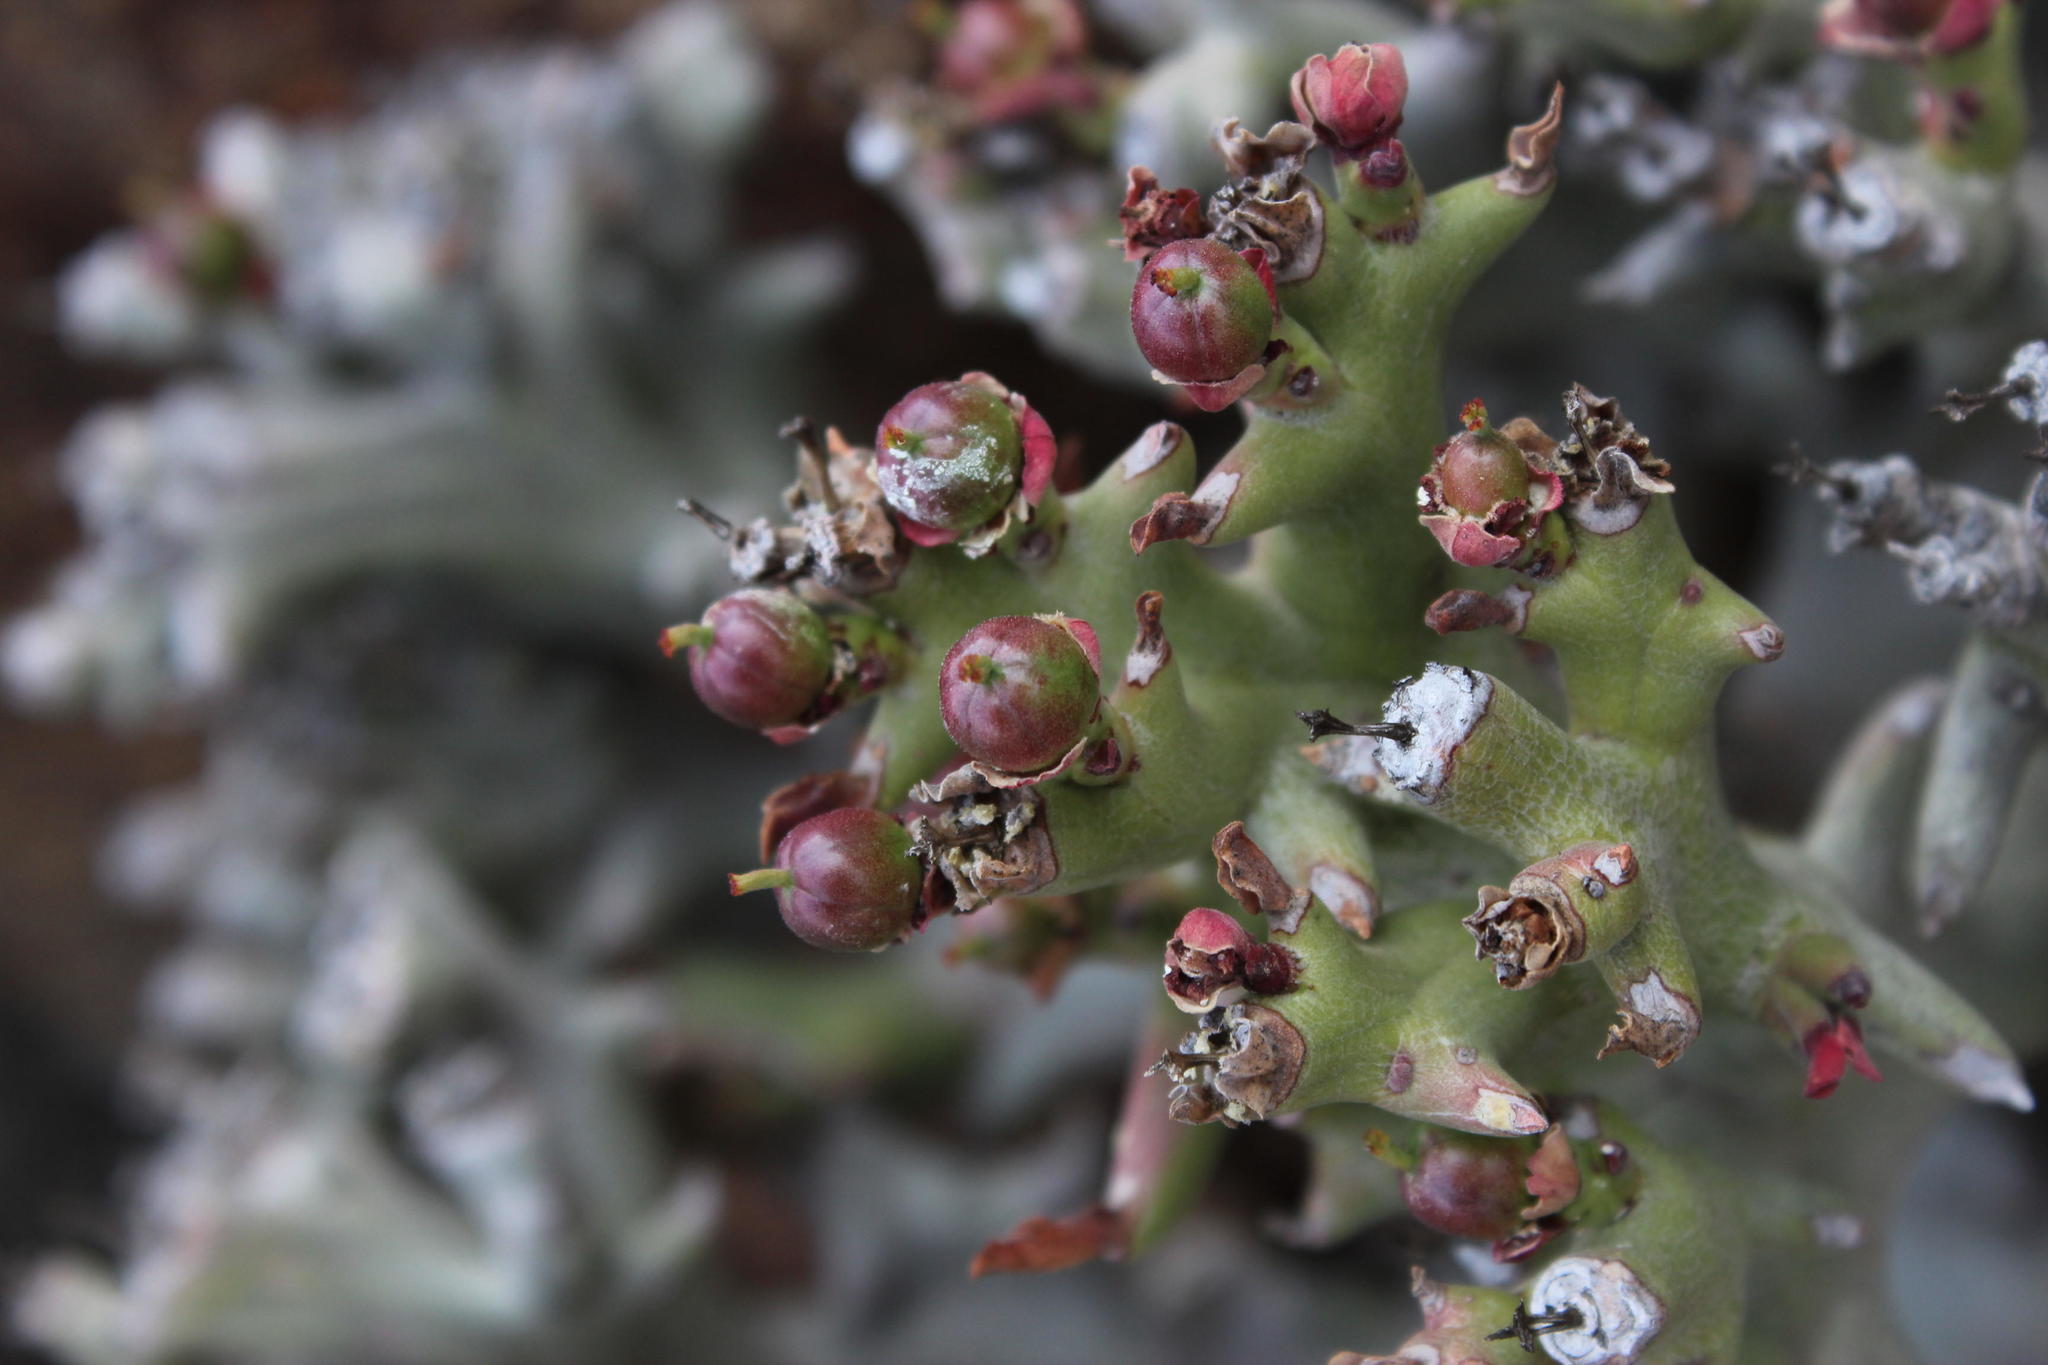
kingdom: Plantae
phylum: Tracheophyta
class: Magnoliopsida
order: Malpighiales
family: Euphorbiaceae
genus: Euphorbia
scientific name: Euphorbia hamata
